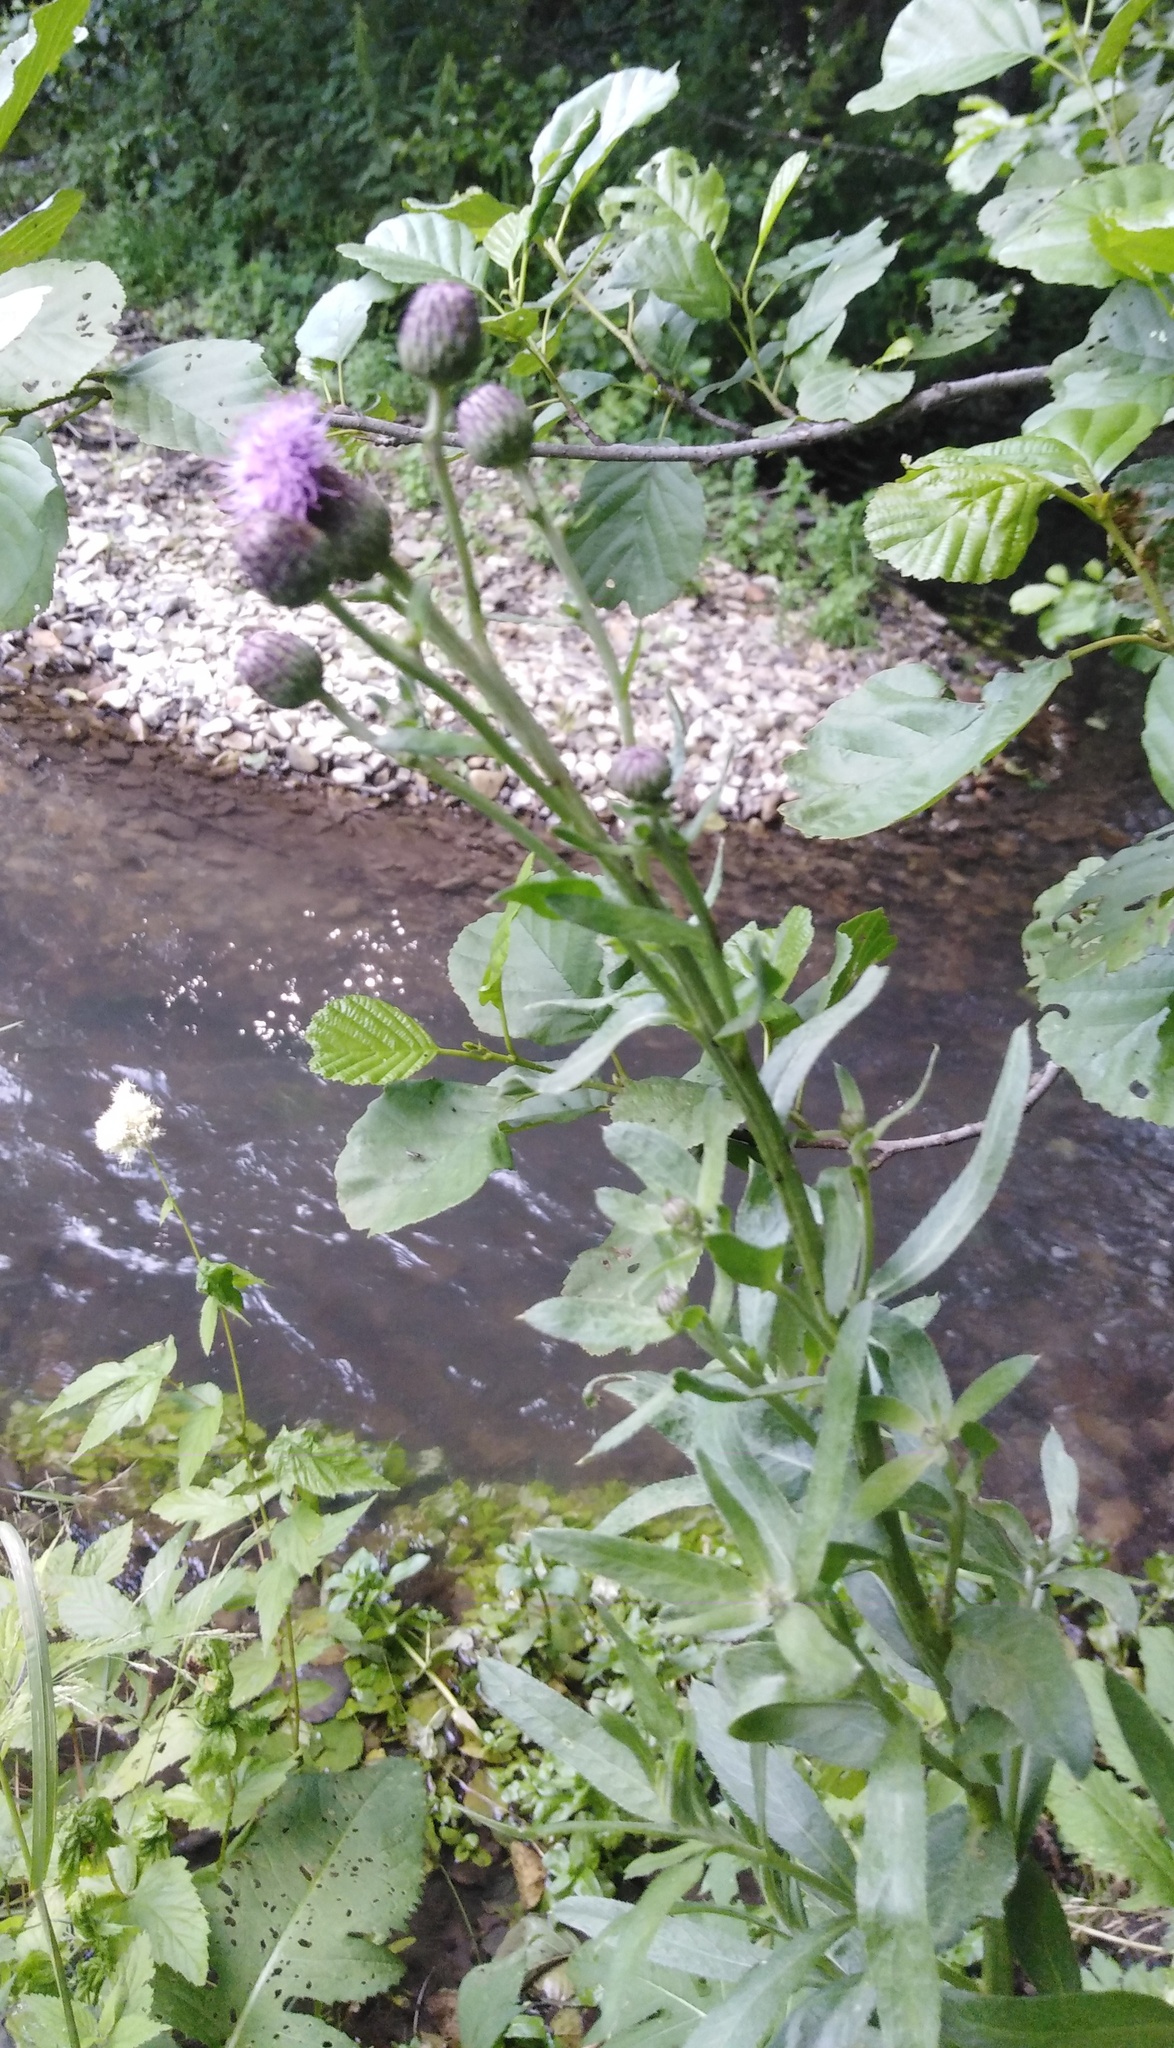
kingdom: Plantae
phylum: Tracheophyta
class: Magnoliopsida
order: Asterales
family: Asteraceae
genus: Cirsium
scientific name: Cirsium arvense
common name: Creeping thistle
